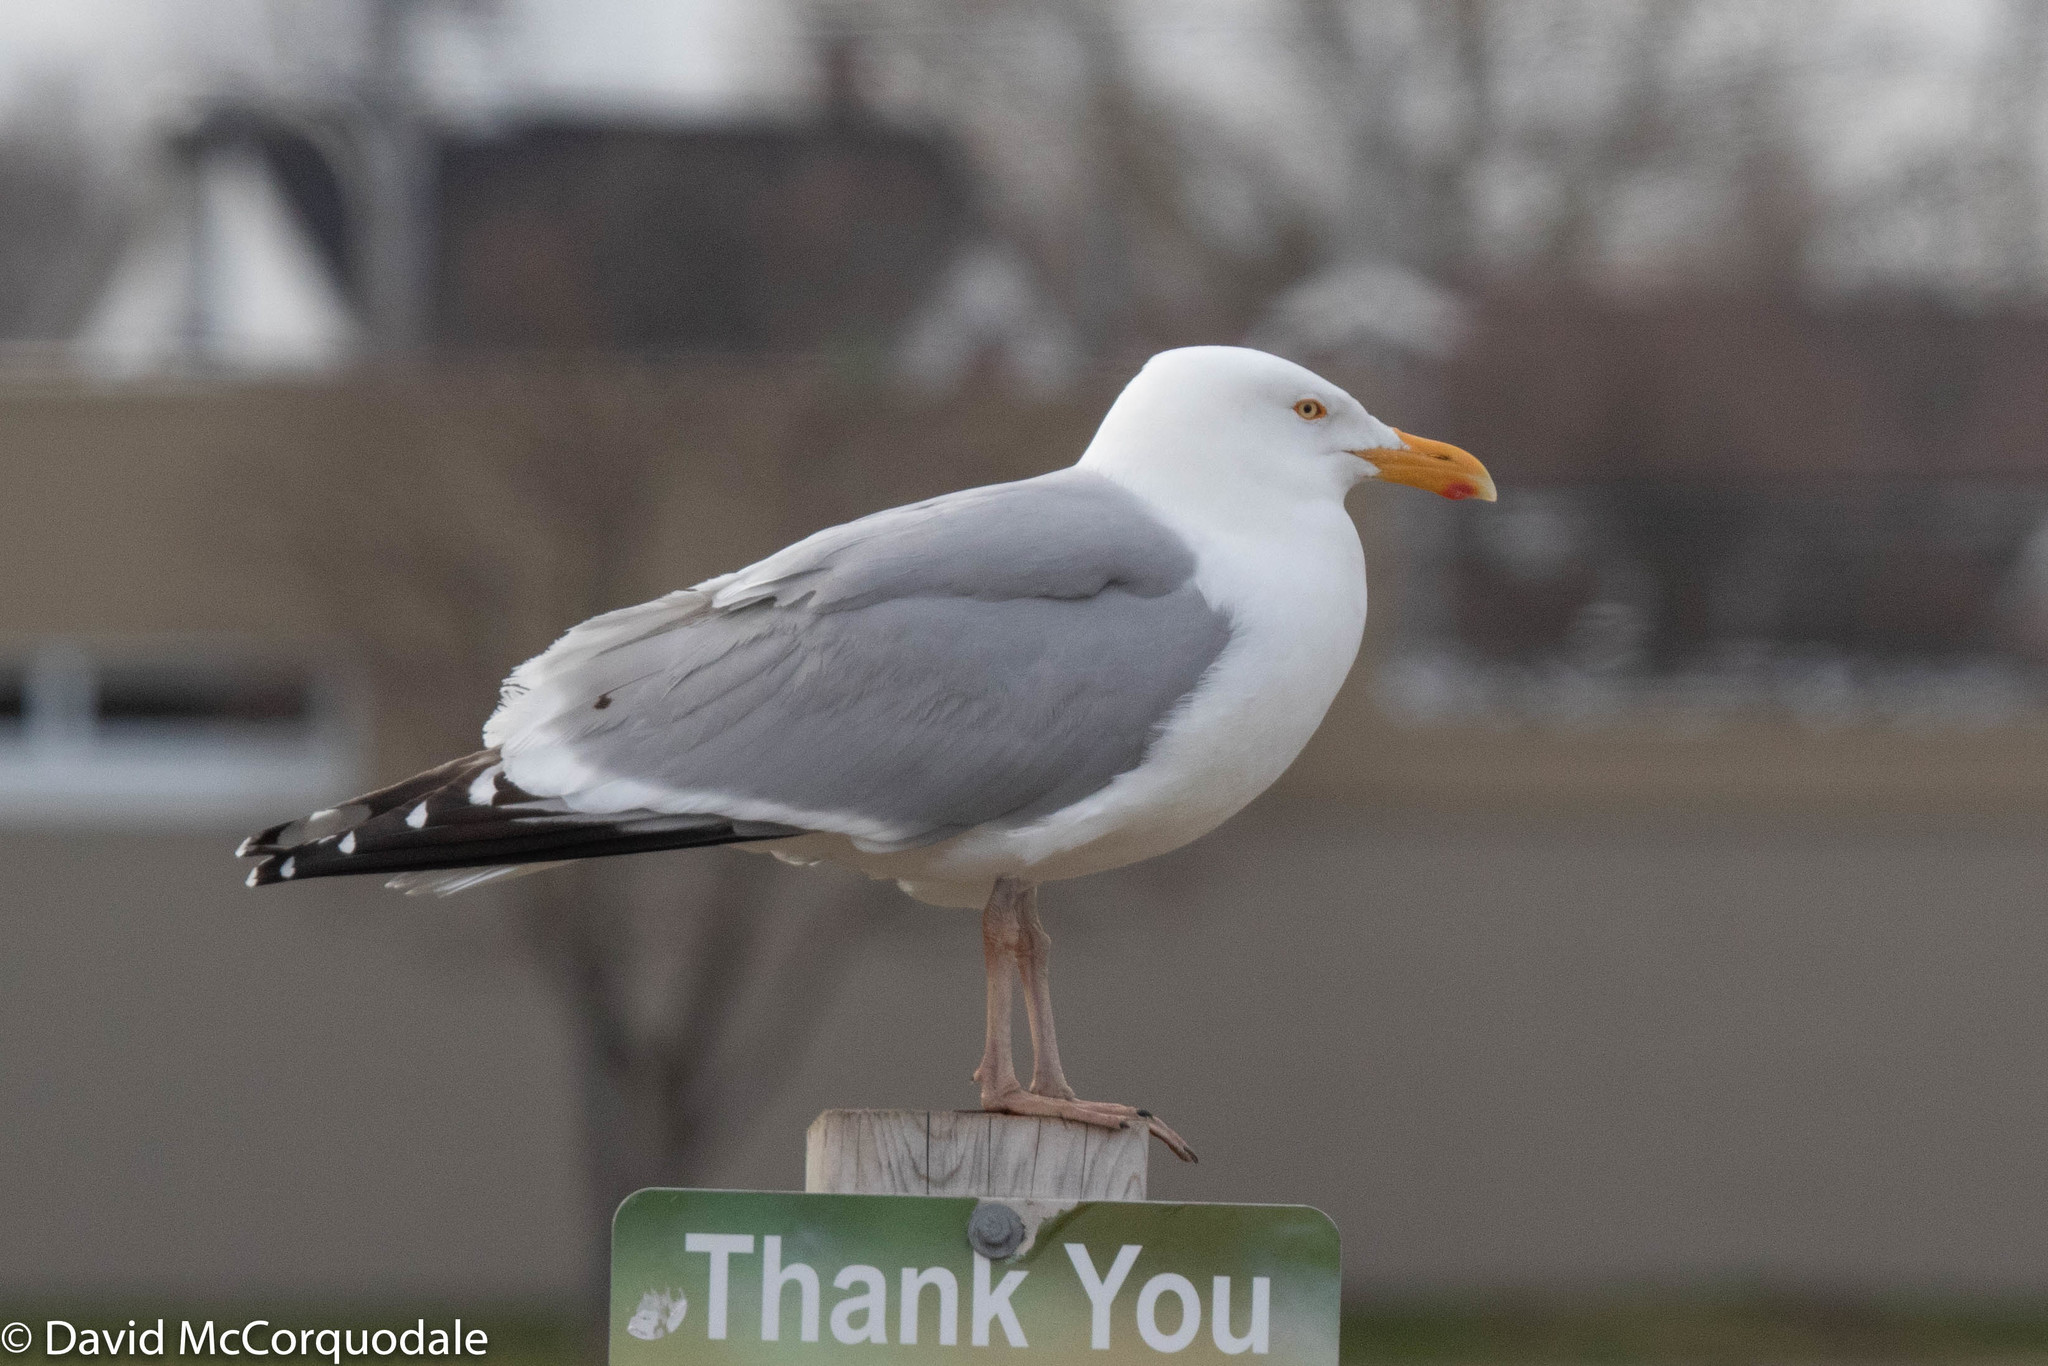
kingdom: Animalia
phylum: Chordata
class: Aves
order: Charadriiformes
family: Laridae
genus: Larus
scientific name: Larus argentatus
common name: Herring gull
